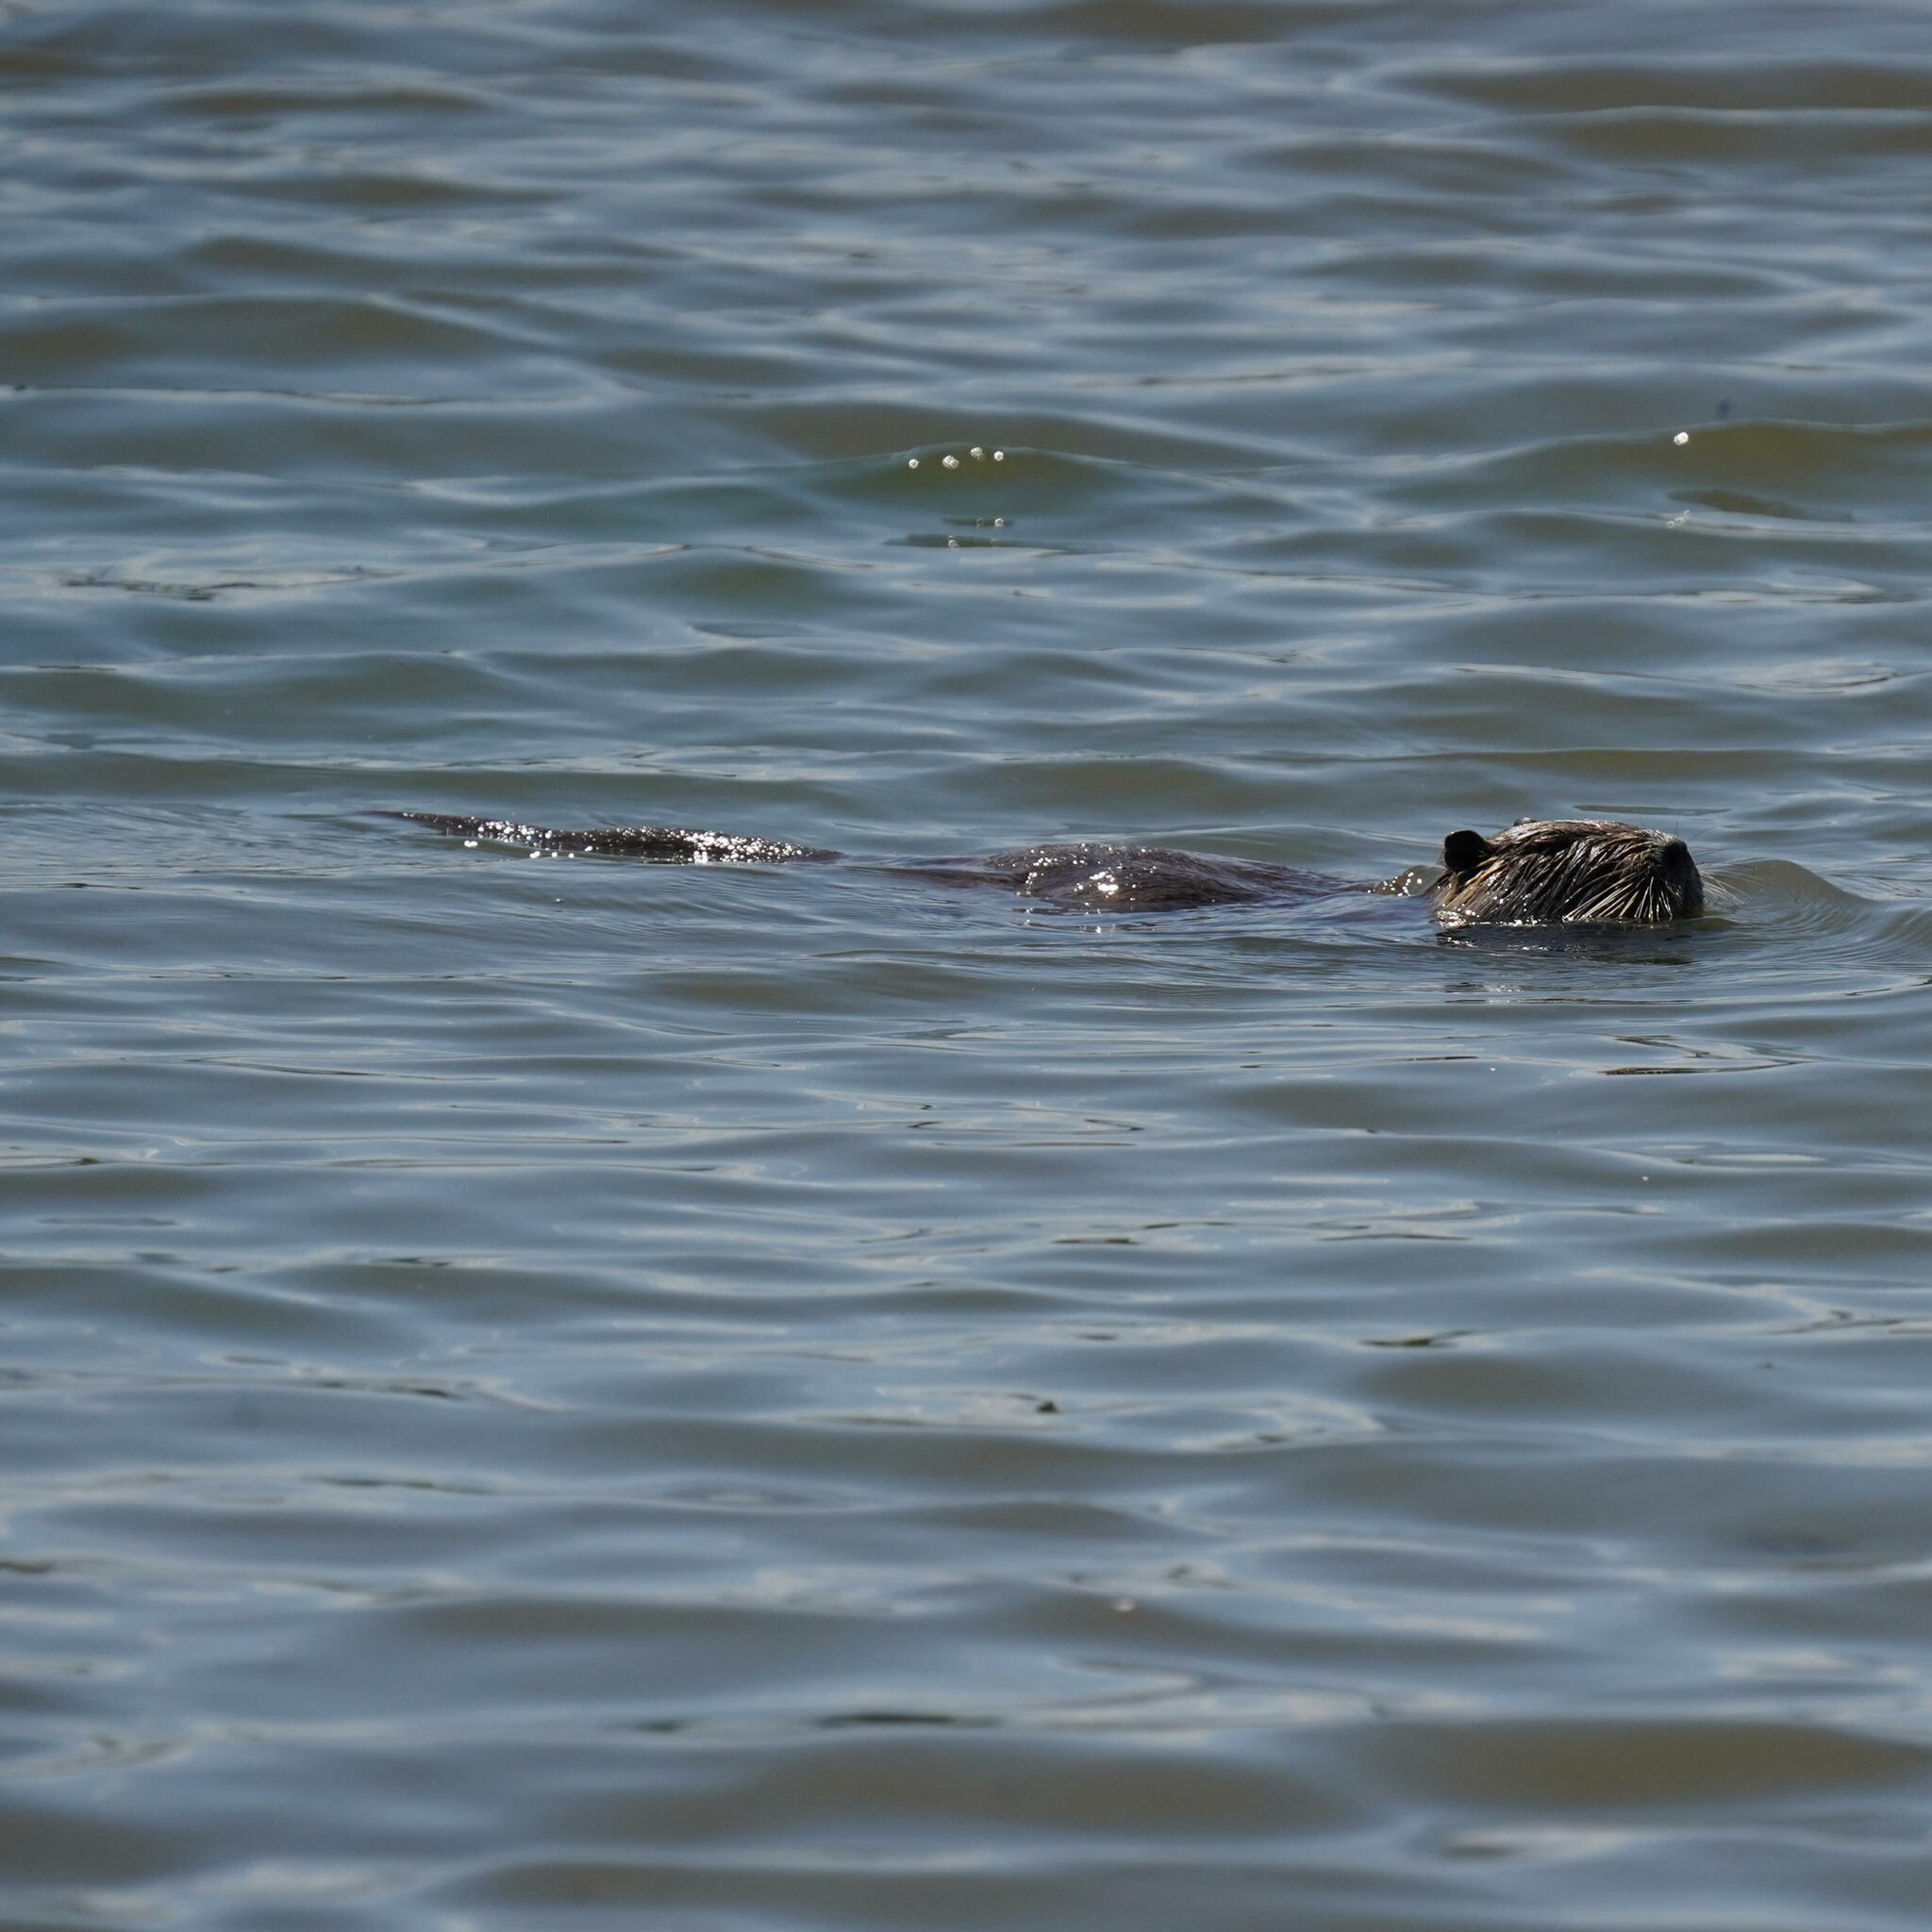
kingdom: Animalia
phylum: Chordata
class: Mammalia
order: Rodentia
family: Myocastoridae
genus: Myocastor
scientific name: Myocastor coypus
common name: Coypu
